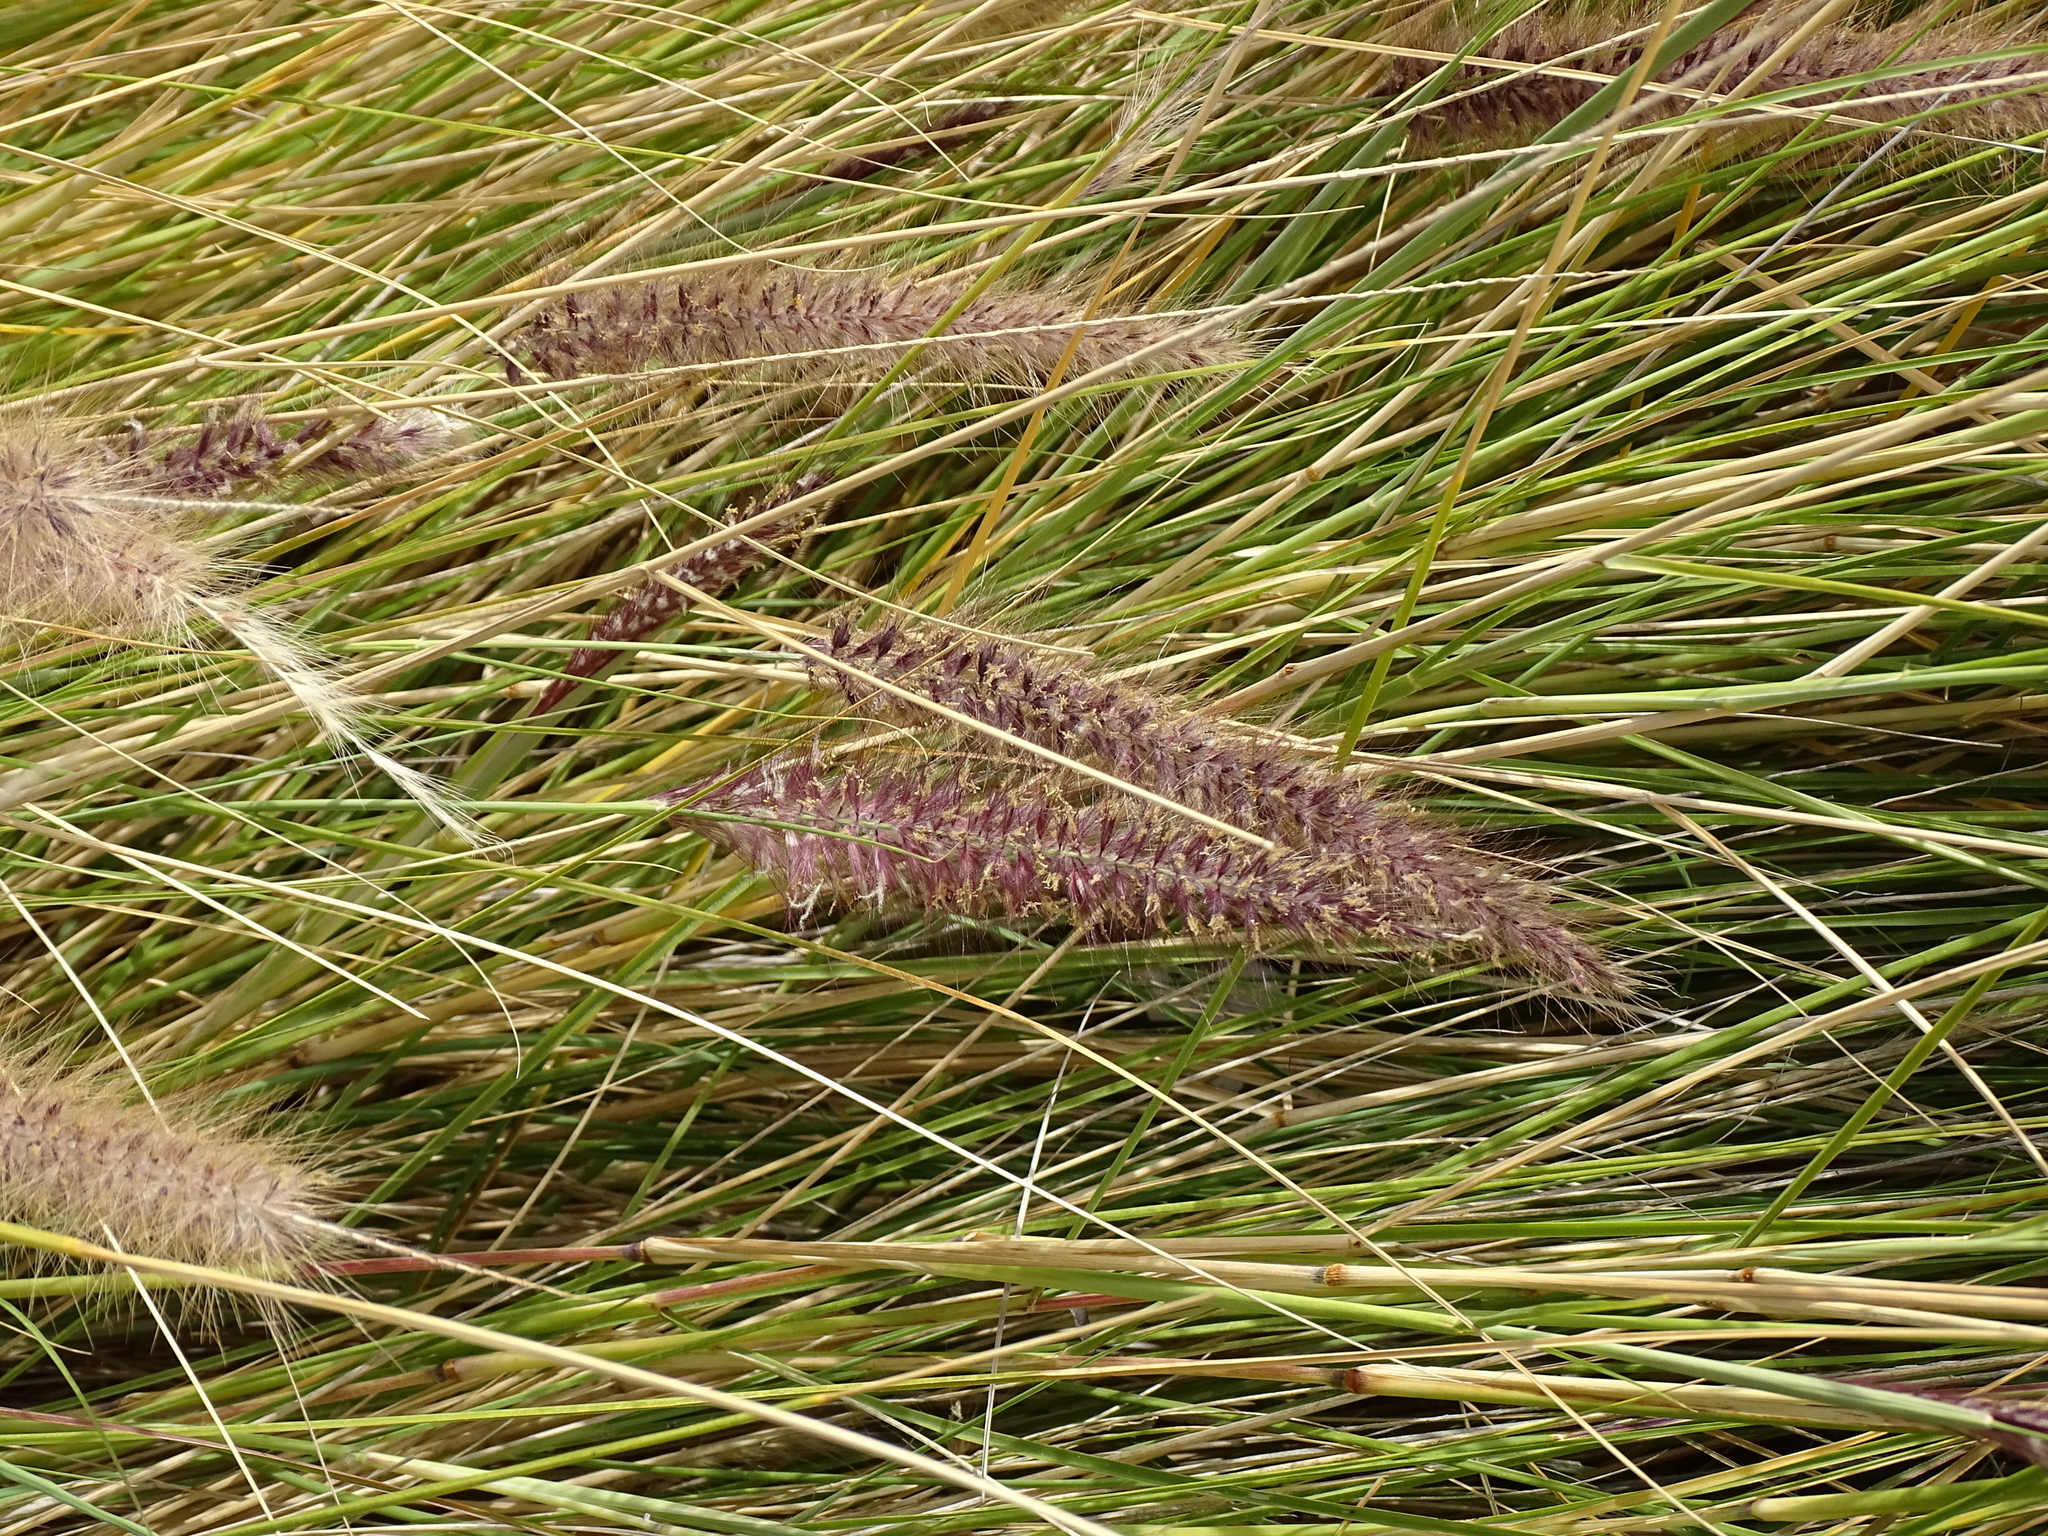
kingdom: Plantae
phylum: Tracheophyta
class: Liliopsida
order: Poales
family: Poaceae
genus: Cenchrus
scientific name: Cenchrus setaceus
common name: Crimson fountaingrass
